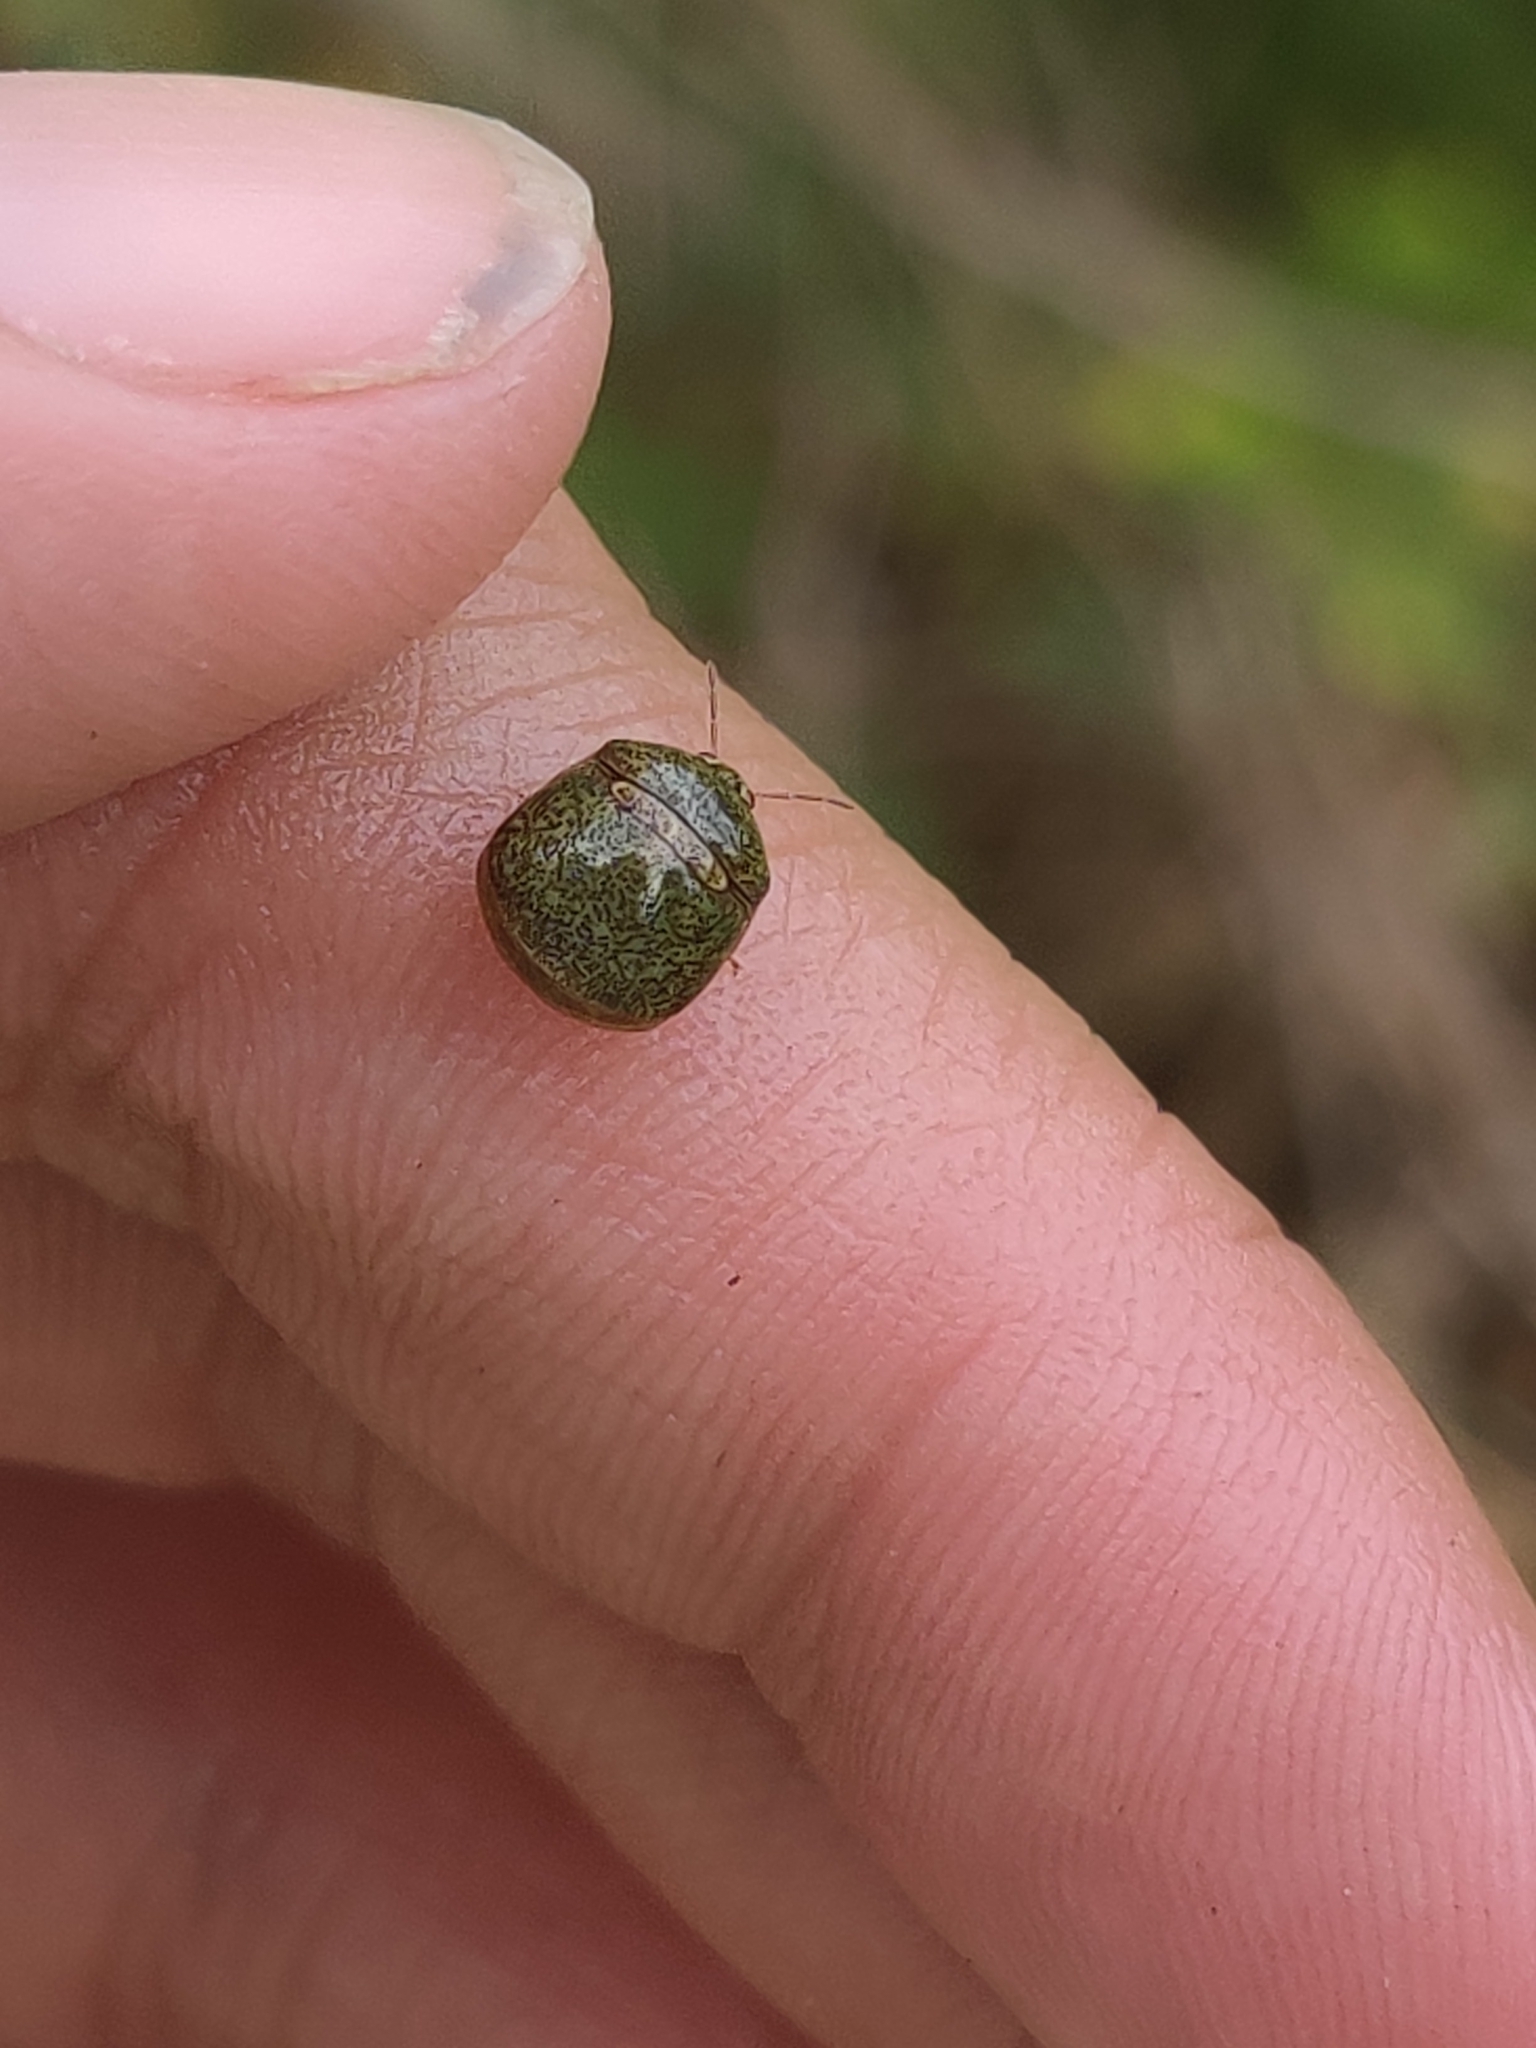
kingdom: Animalia
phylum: Arthropoda
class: Insecta
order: Hemiptera
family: Plataspidae
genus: Megacopta
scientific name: Megacopta cribraria
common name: Bean plataspid
